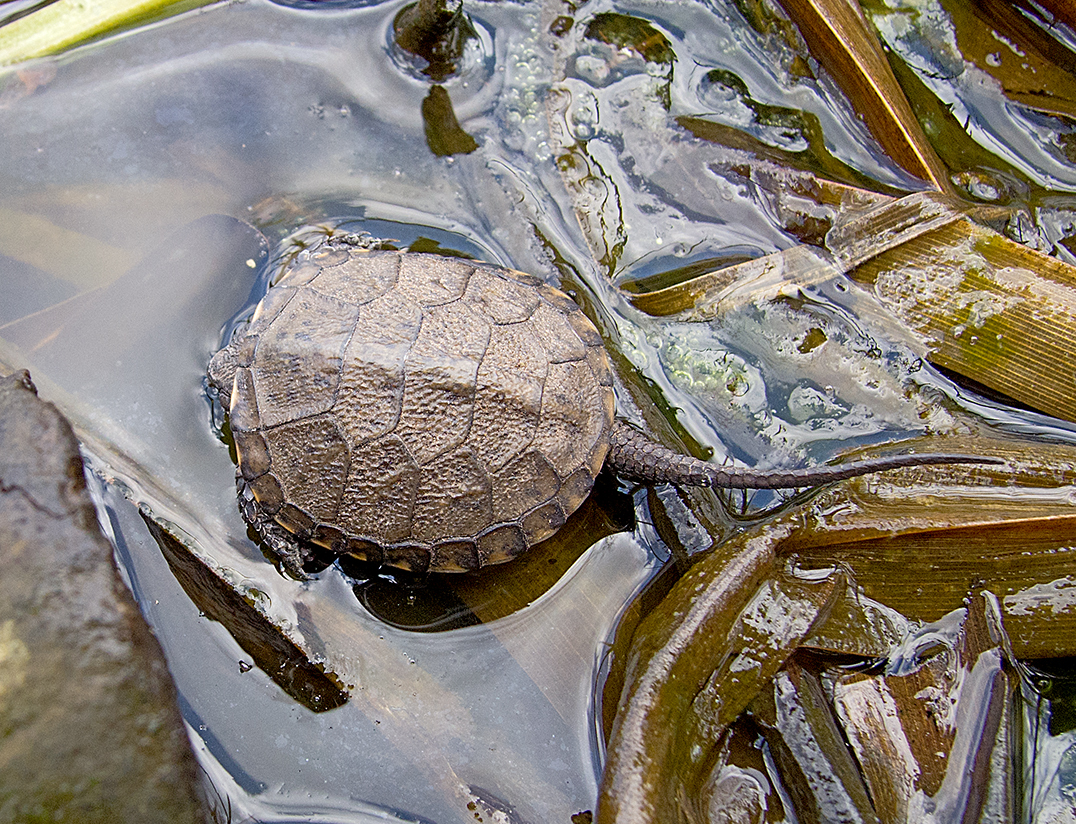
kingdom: Animalia
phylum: Chordata
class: Testudines
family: Emydidae
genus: Emys
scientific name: Emys orbicularis
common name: European pond turtle
